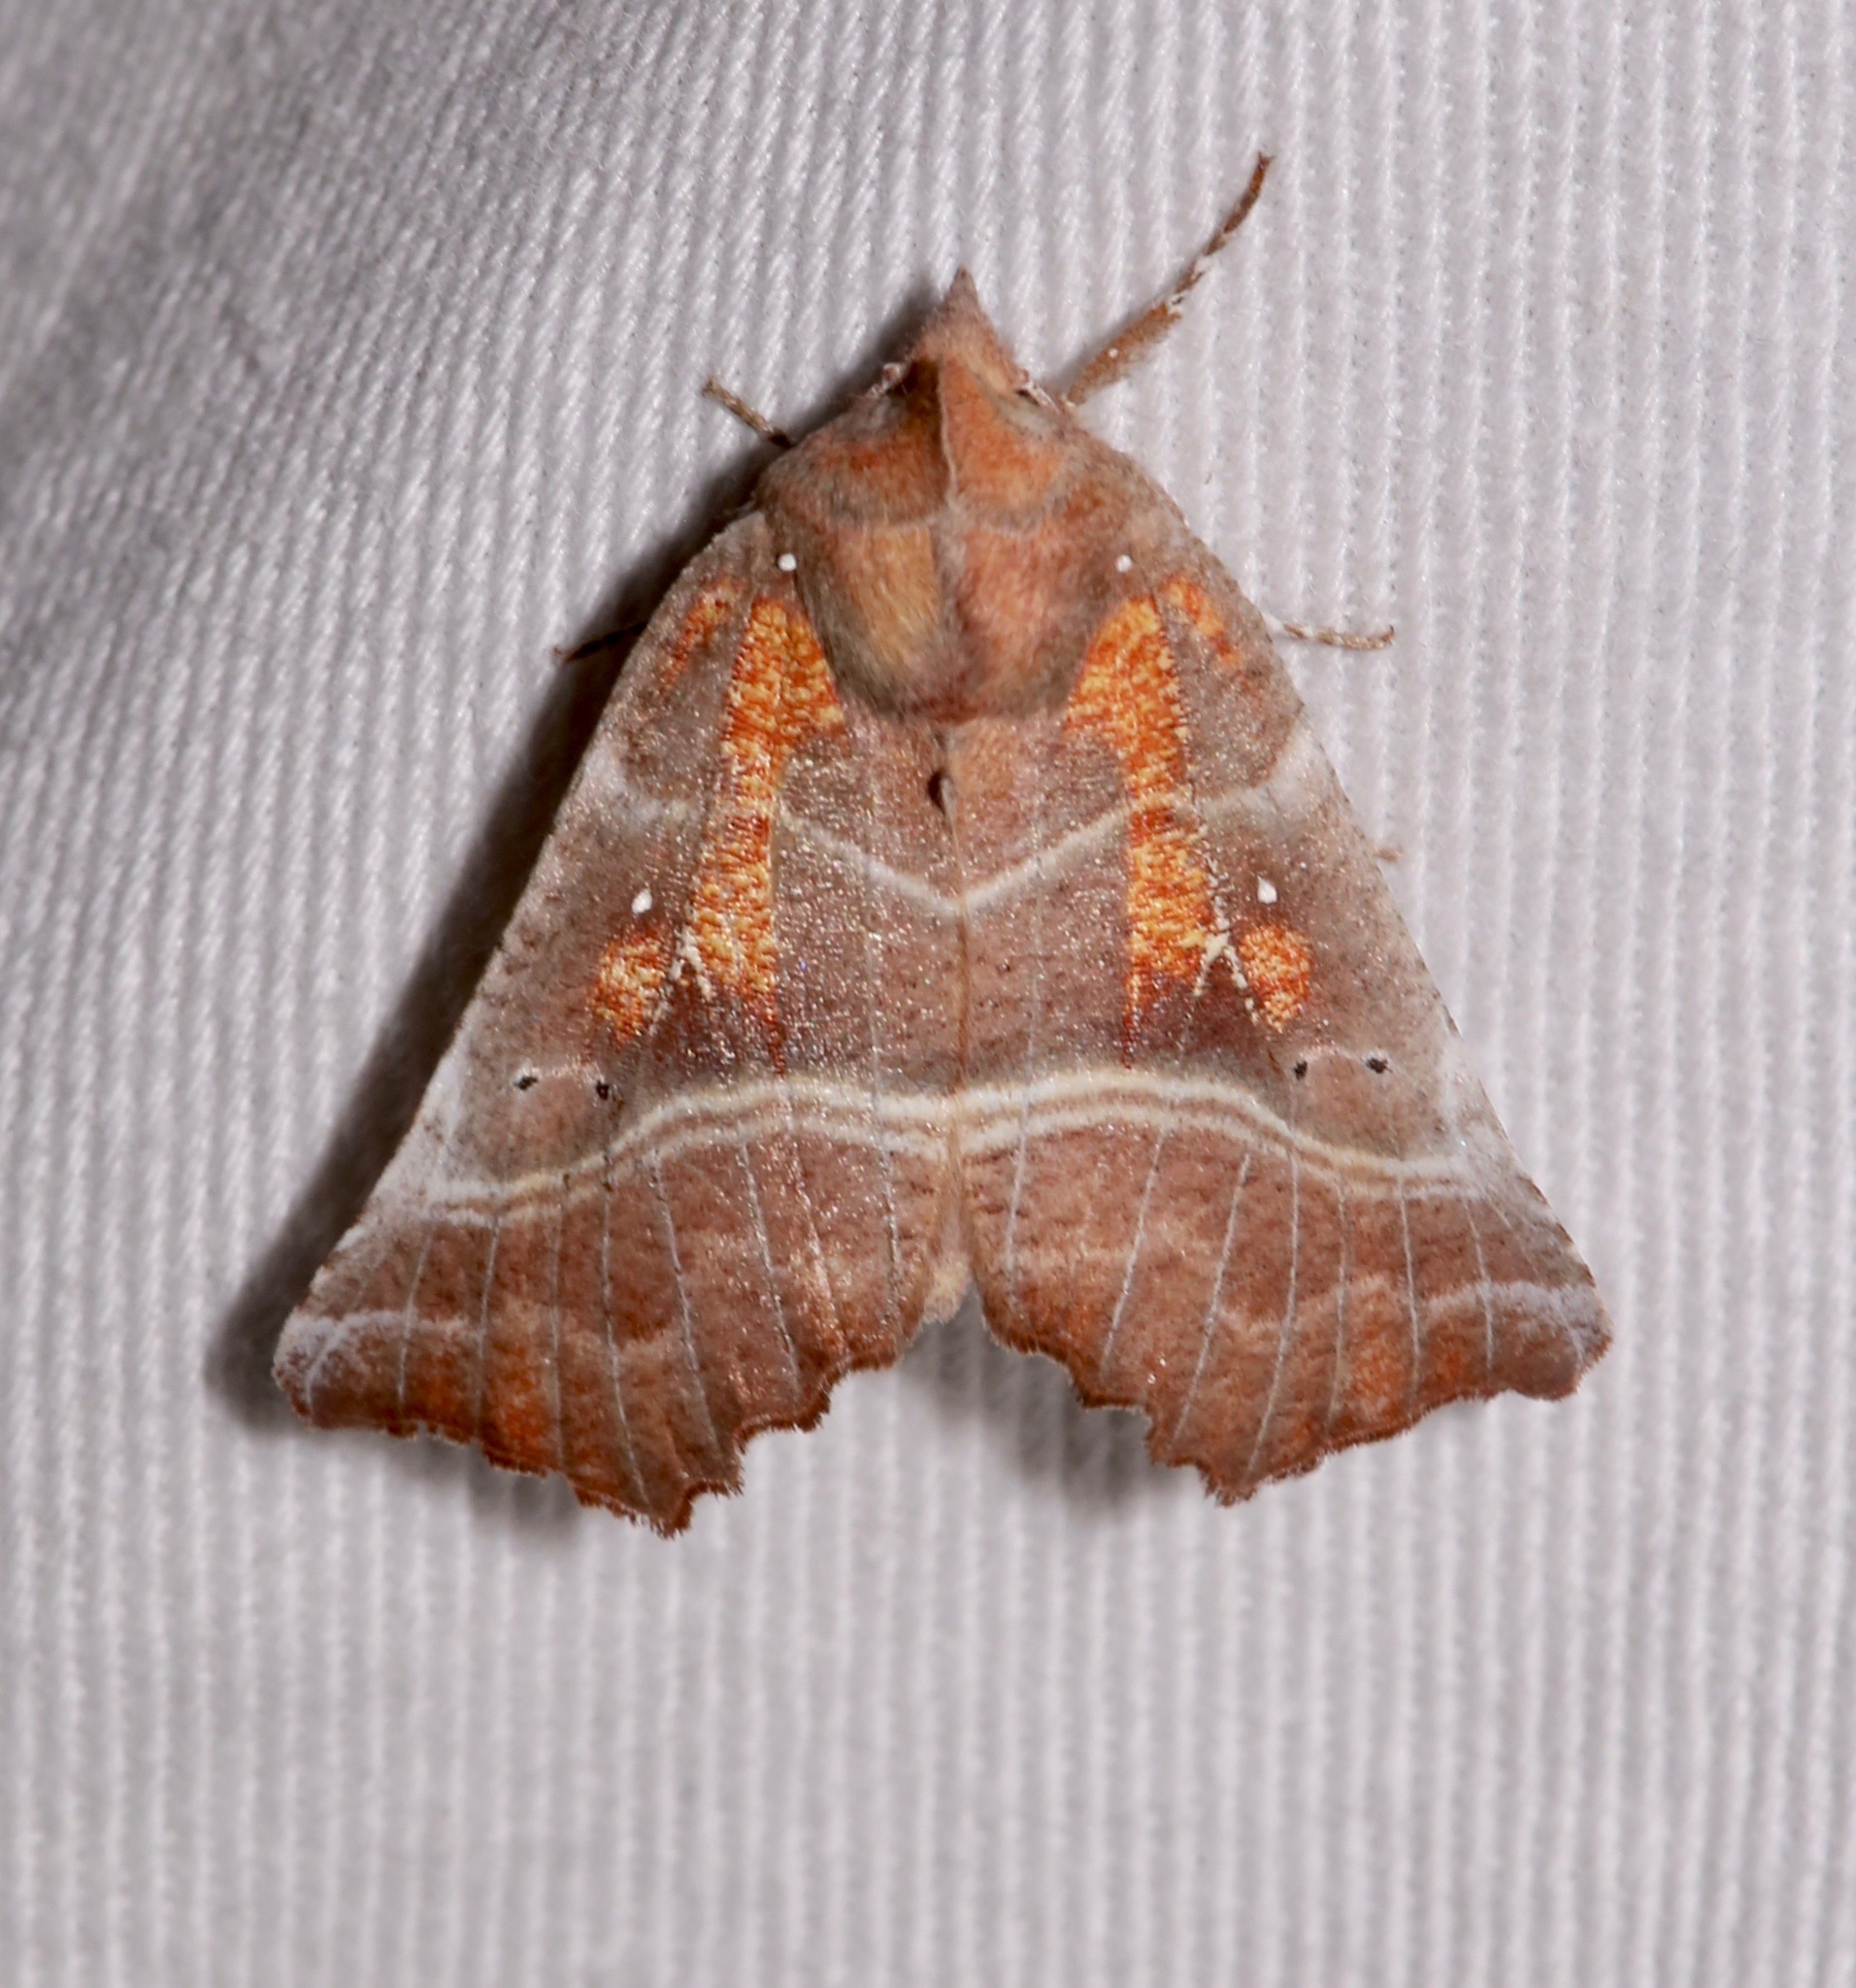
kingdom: Animalia
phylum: Arthropoda
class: Insecta
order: Lepidoptera
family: Erebidae
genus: Scoliopteryx
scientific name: Scoliopteryx libatrix
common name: Herald
